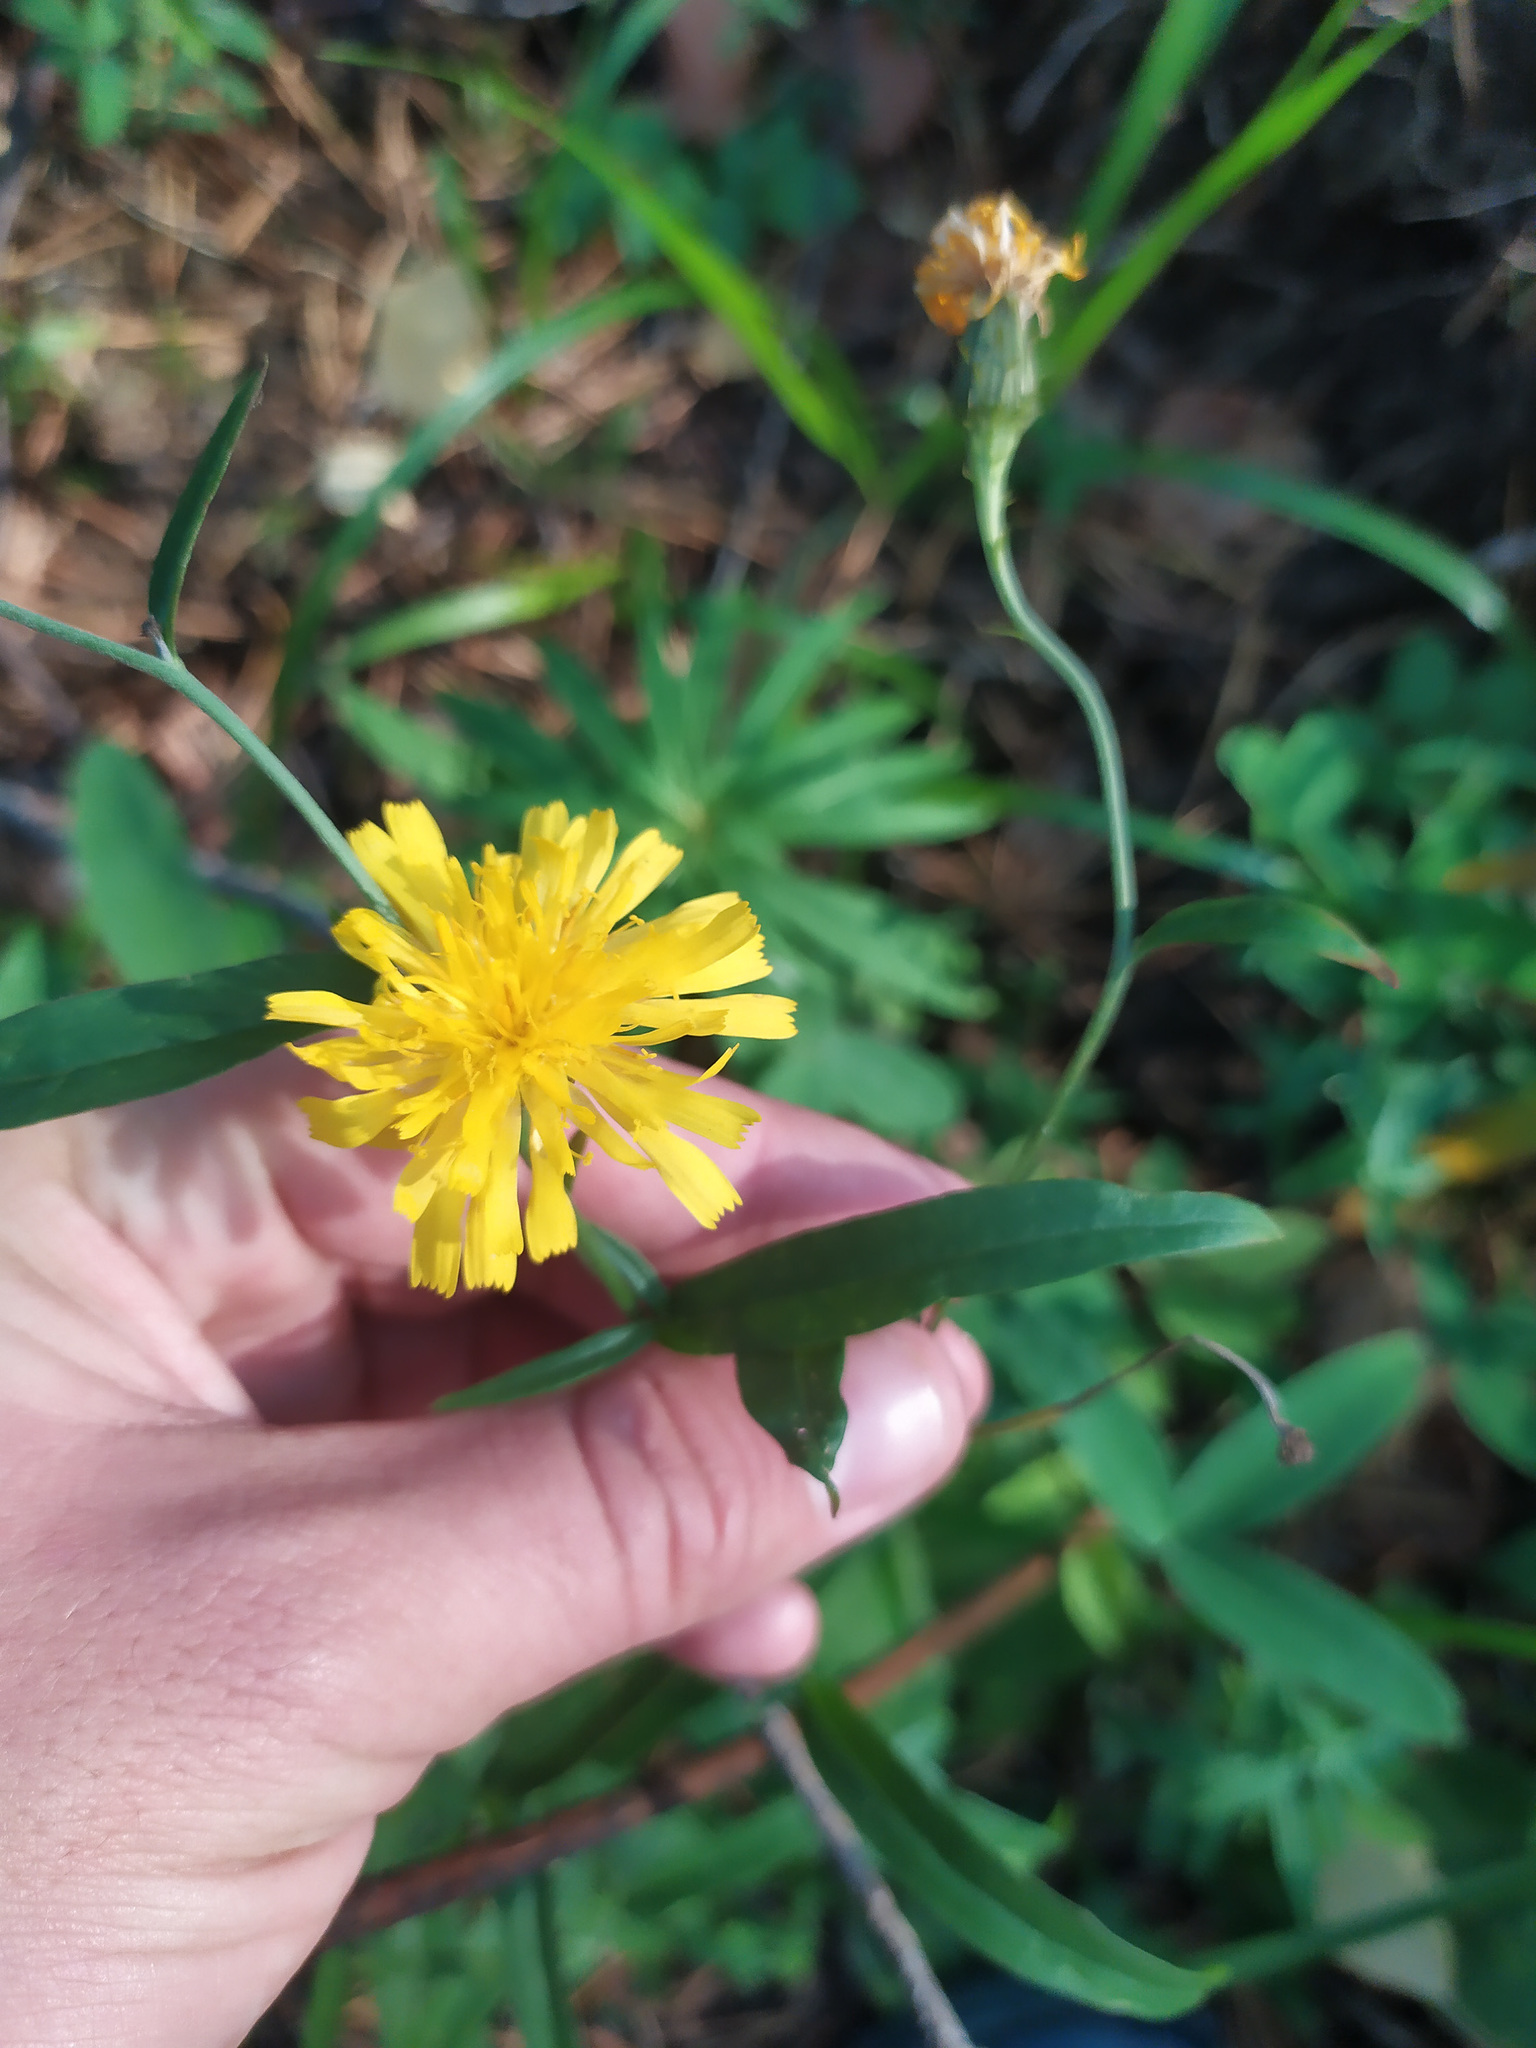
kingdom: Plantae
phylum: Tracheophyta
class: Magnoliopsida
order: Asterales
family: Asteraceae
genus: Hieracium
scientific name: Hieracium umbellatum
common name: Northern hawkweed
